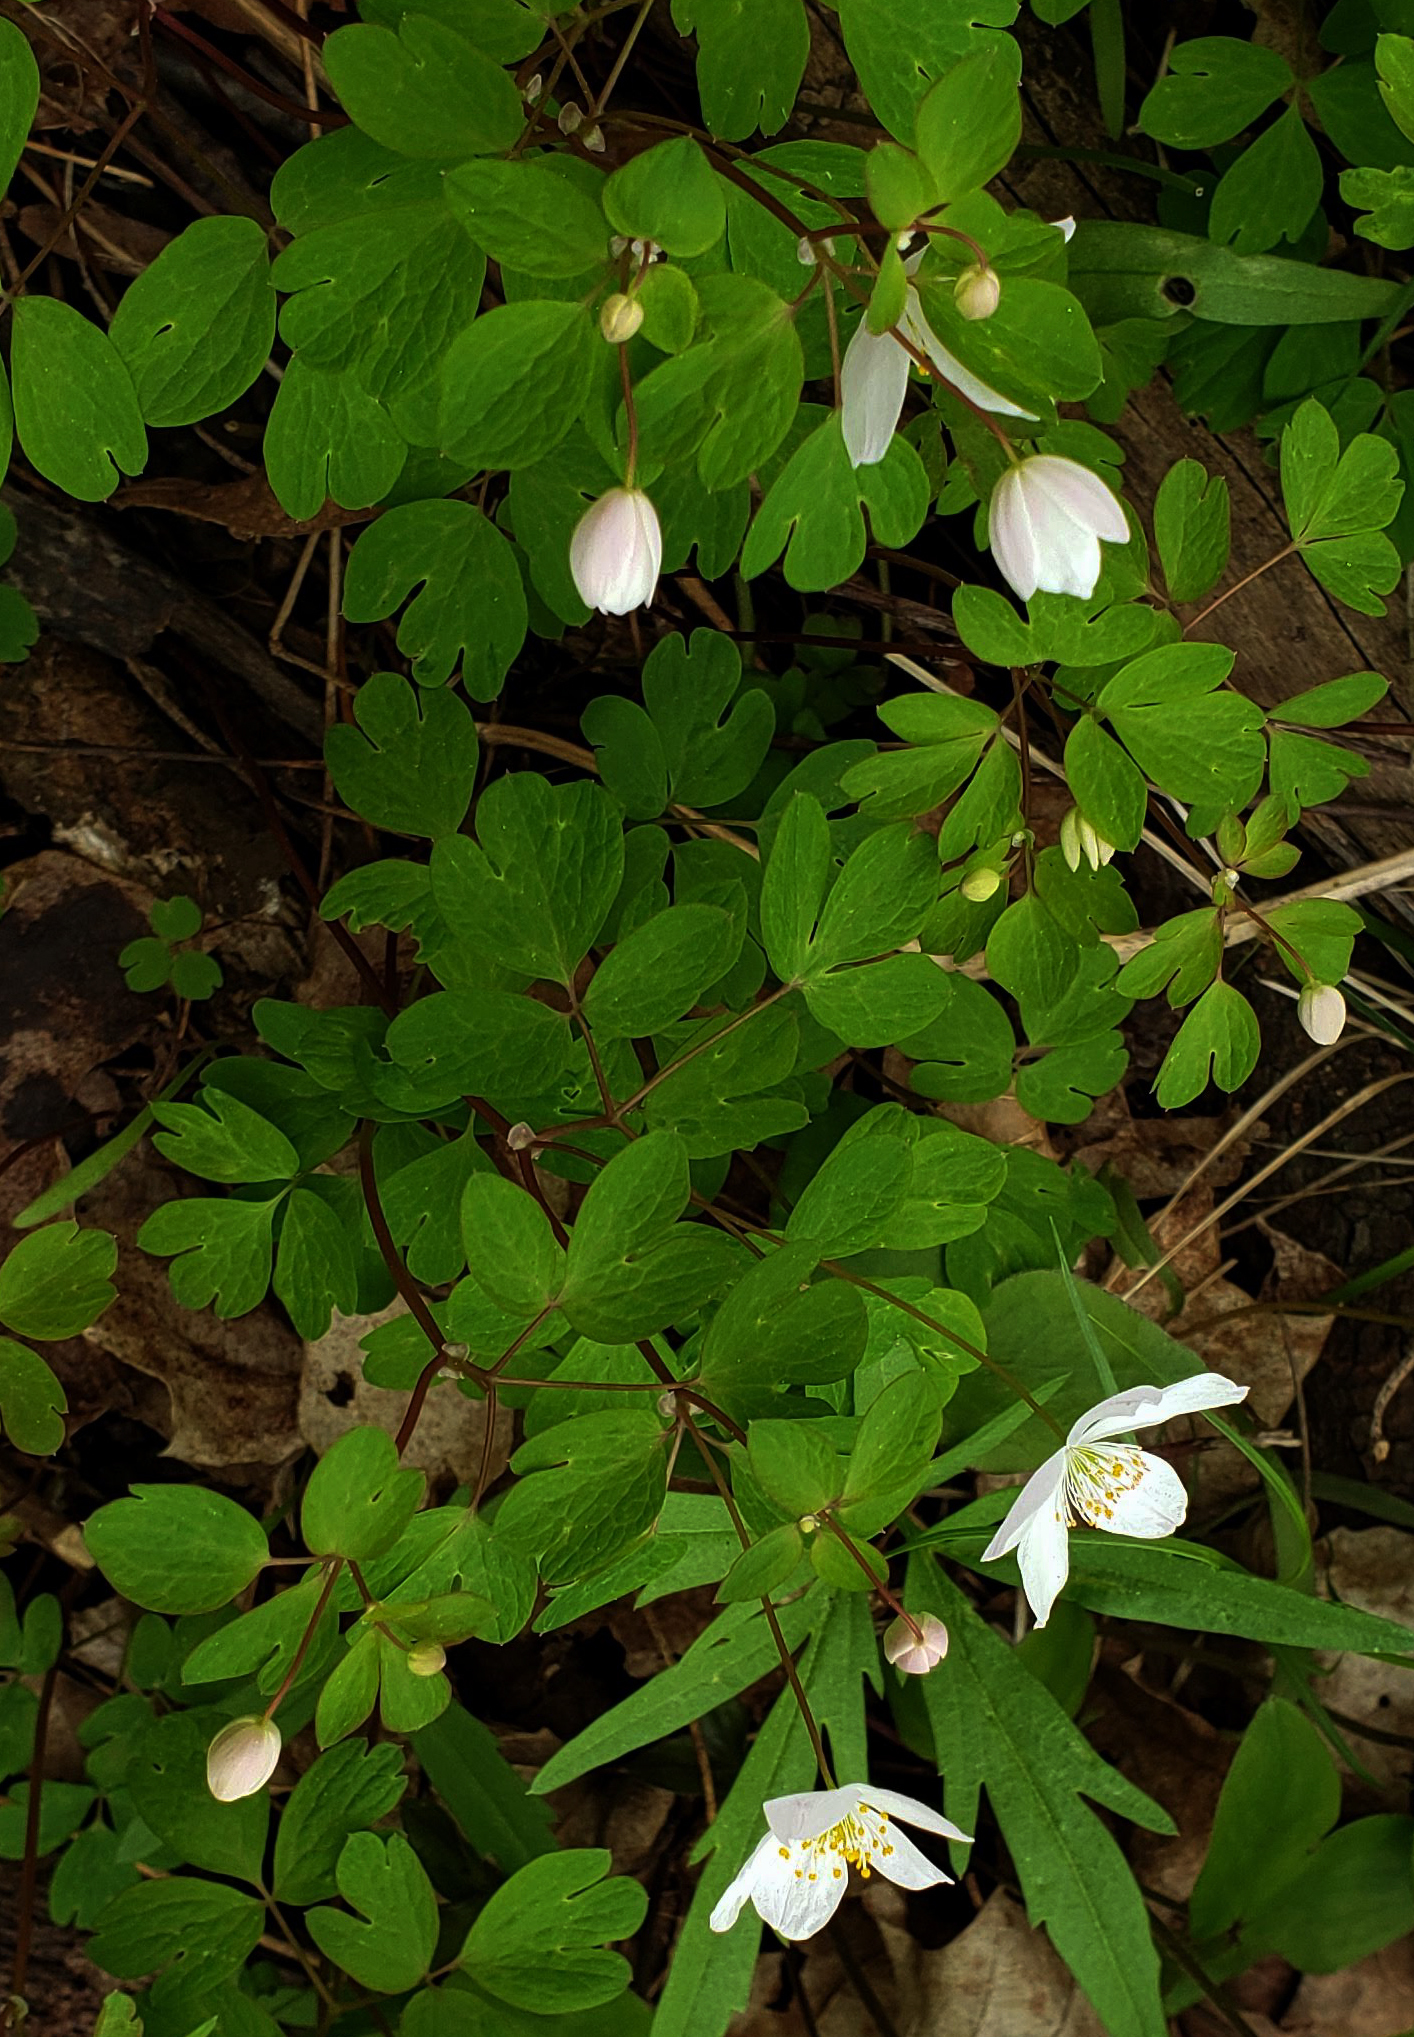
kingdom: Plantae
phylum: Tracheophyta
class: Magnoliopsida
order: Ranunculales
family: Ranunculaceae
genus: Enemion
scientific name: Enemion biternatum
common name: Eastern false rue-anemone
